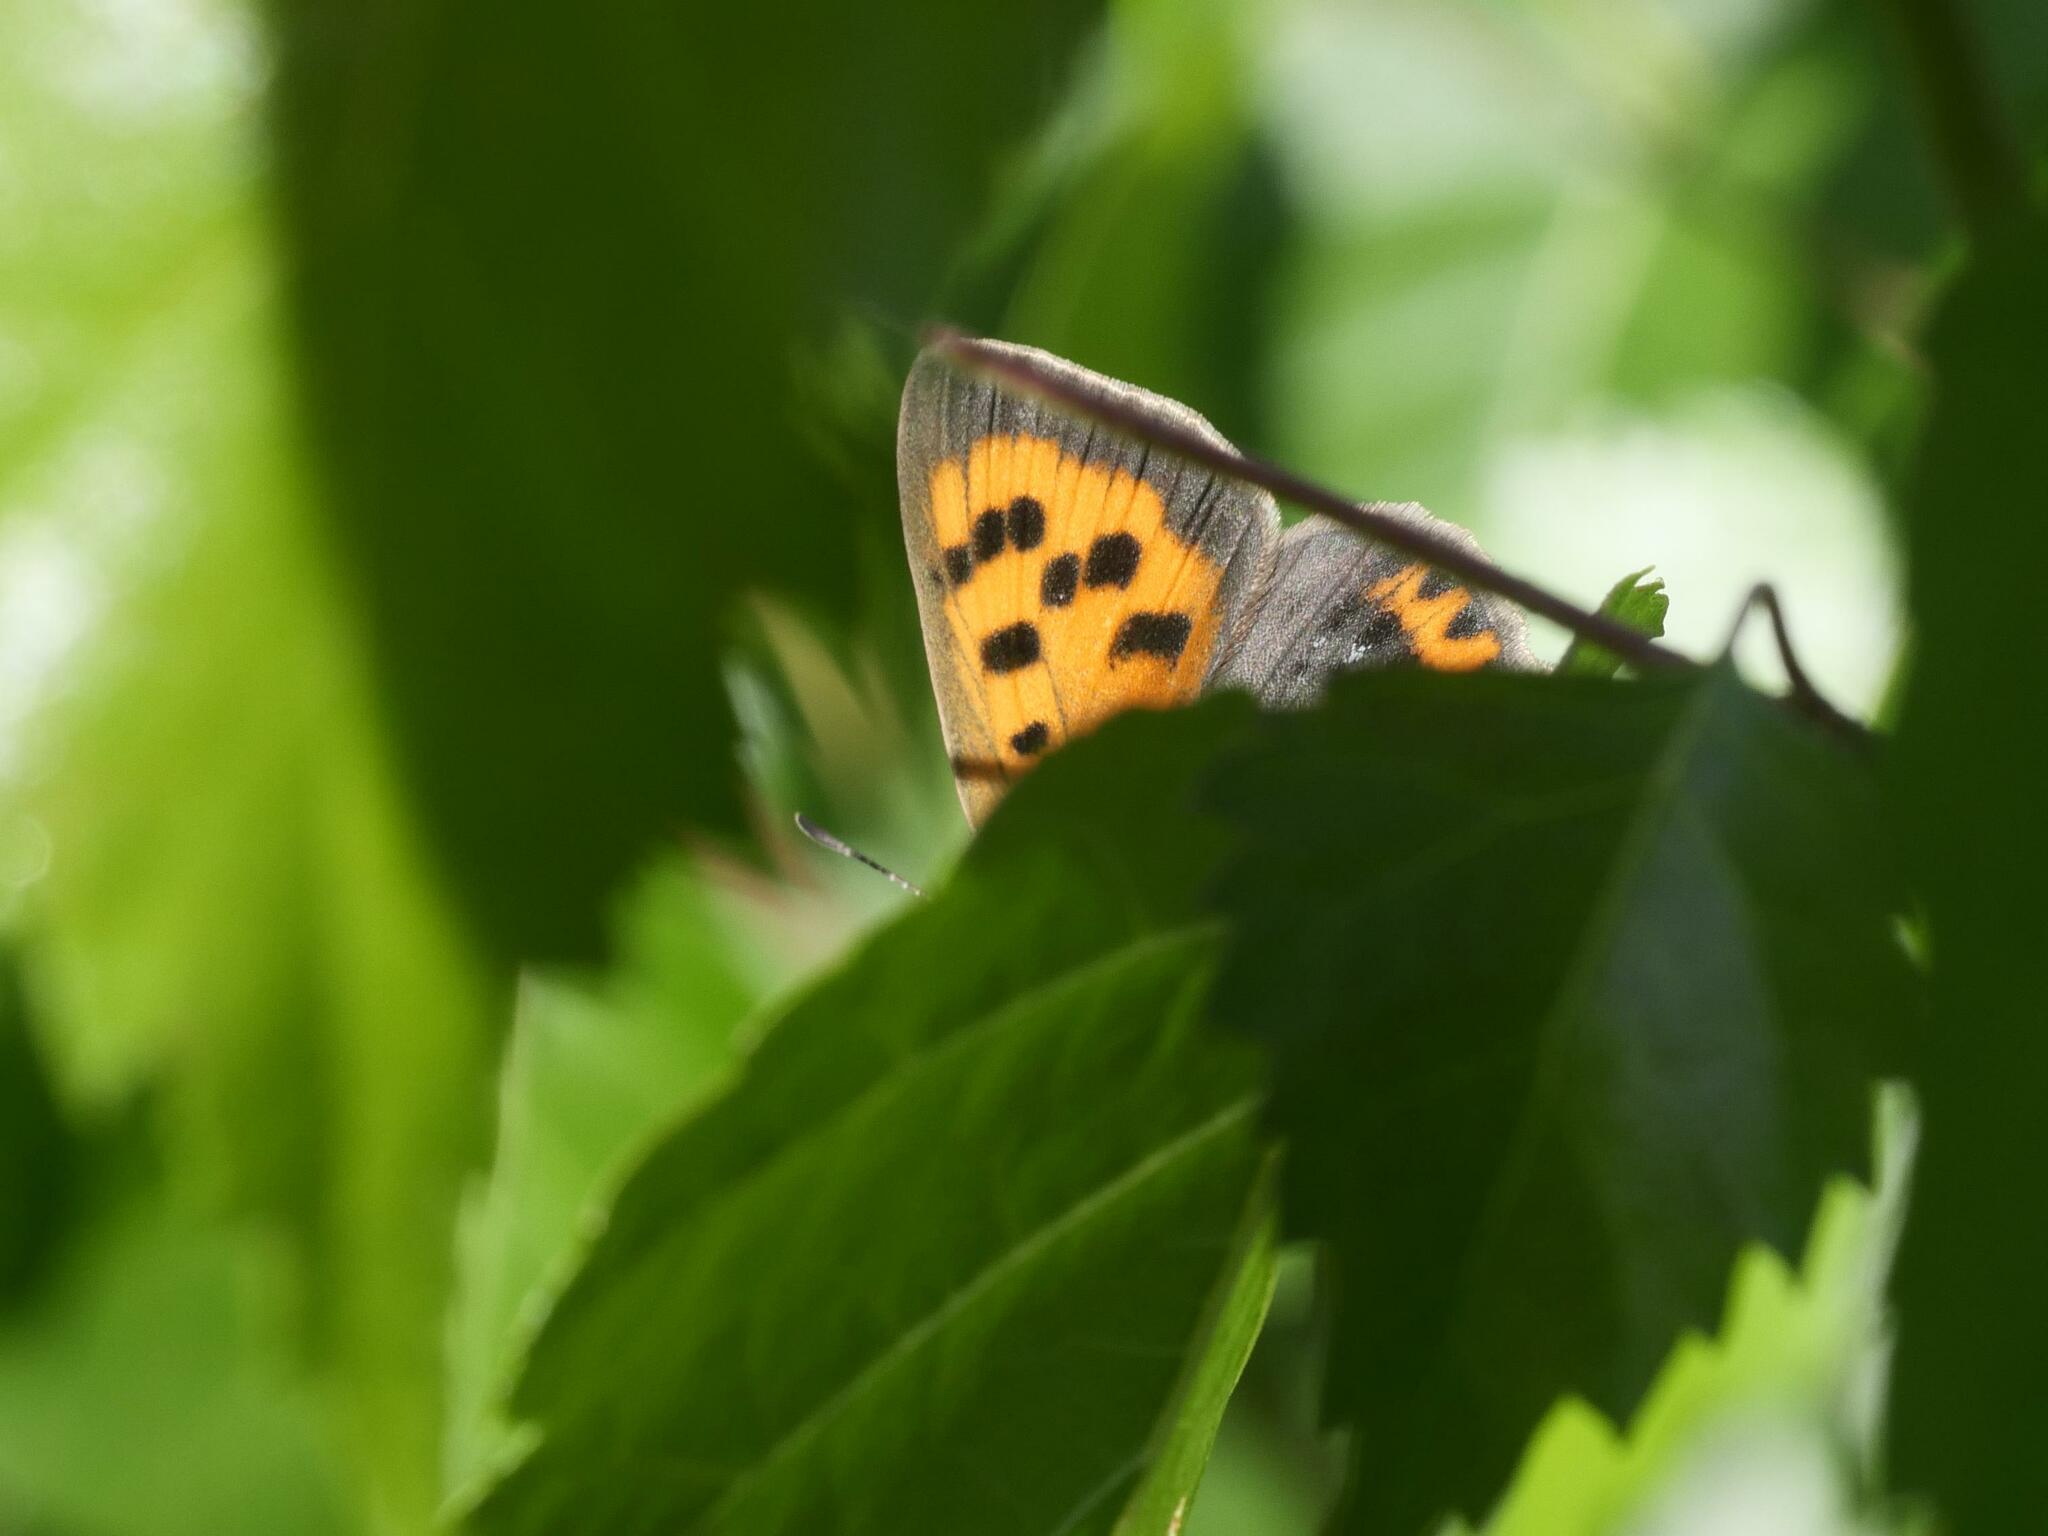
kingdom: Animalia
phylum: Arthropoda
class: Insecta
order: Lepidoptera
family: Lycaenidae
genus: Lycaena
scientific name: Lycaena phlaeas
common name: Small copper
